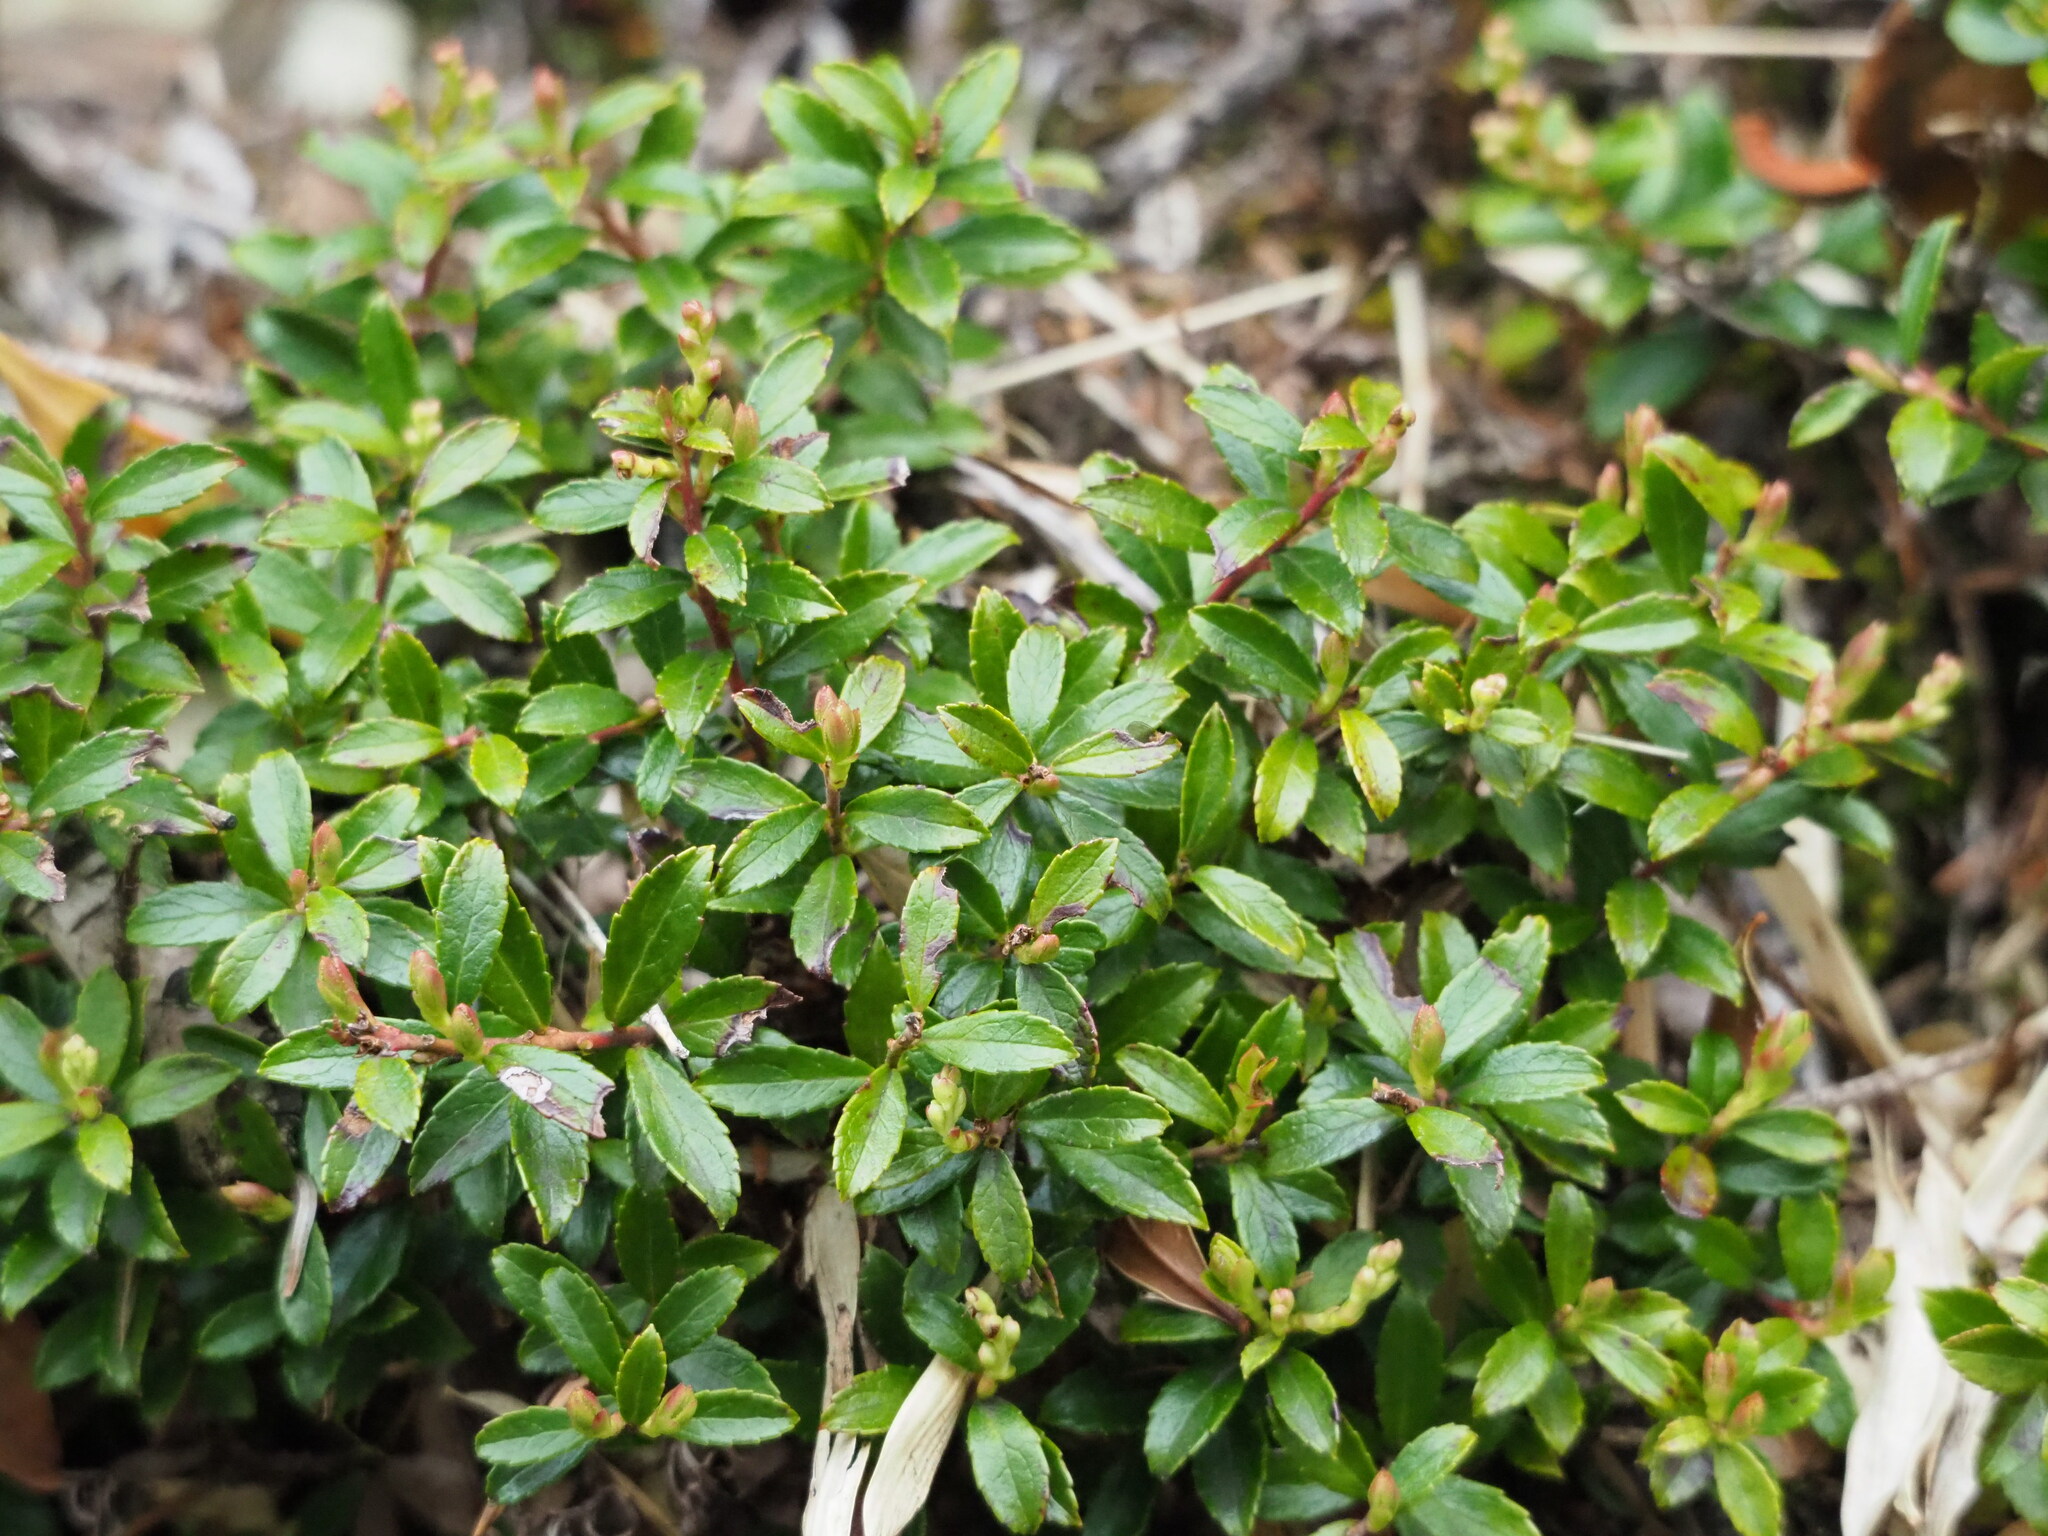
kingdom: Plantae
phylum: Tracheophyta
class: Magnoliopsida
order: Ericales
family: Ericaceae
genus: Gaultheria
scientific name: Gaultheria borneensis
